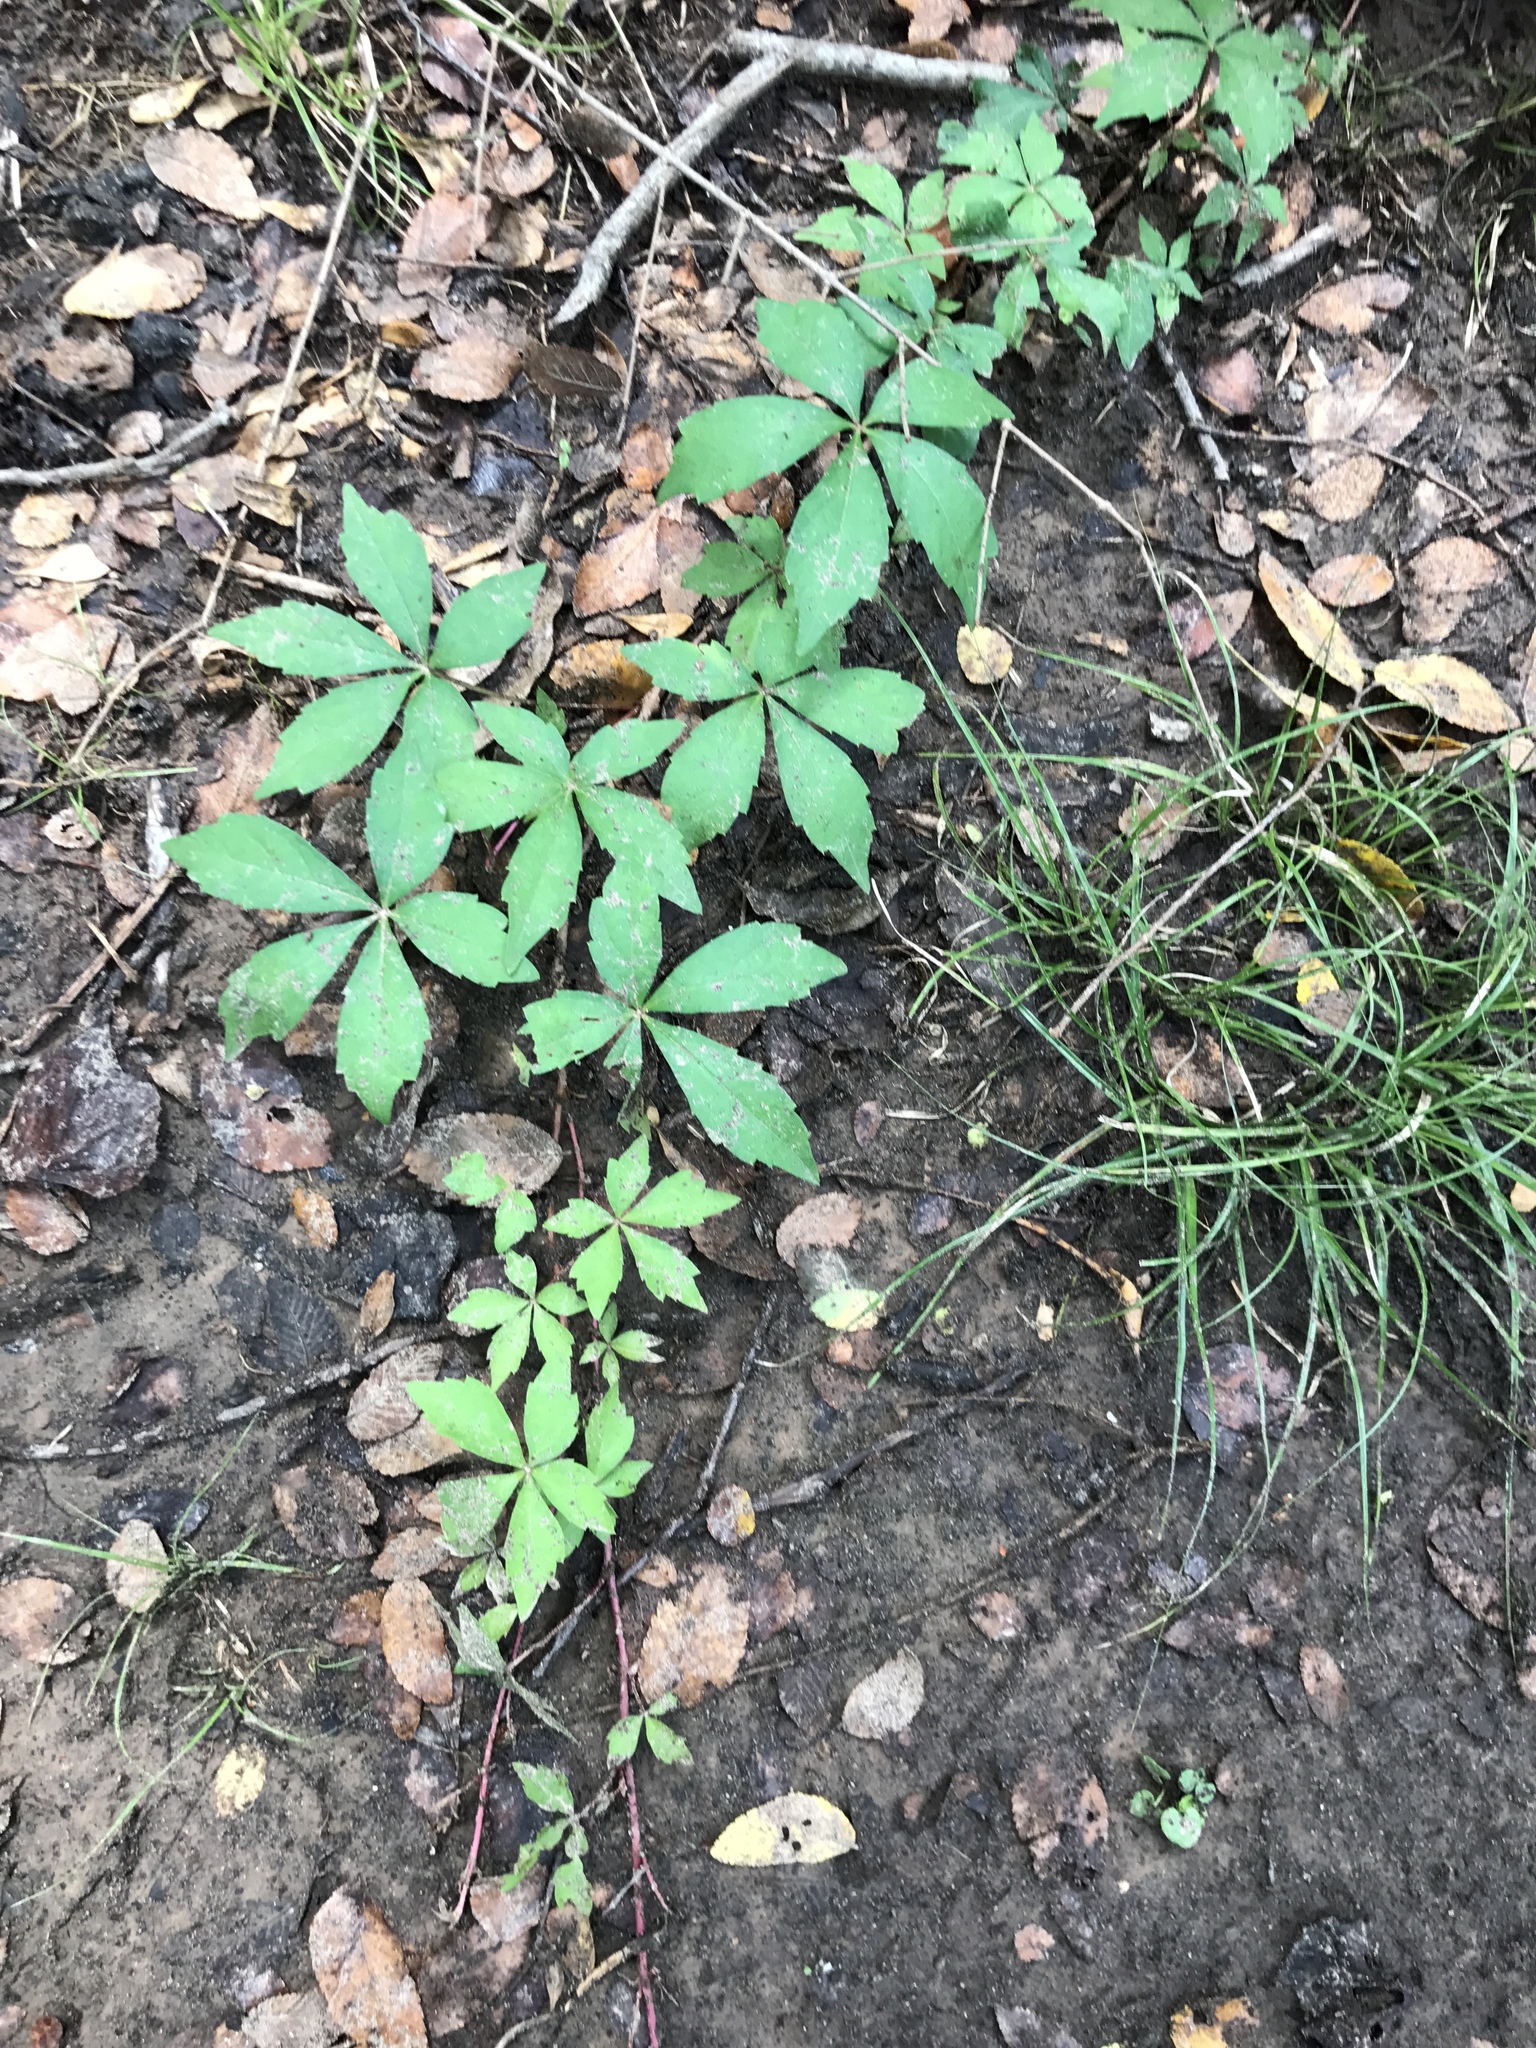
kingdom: Plantae
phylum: Tracheophyta
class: Magnoliopsida
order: Vitales
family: Vitaceae
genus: Parthenocissus
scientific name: Parthenocissus quinquefolia
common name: Virginia-creeper
